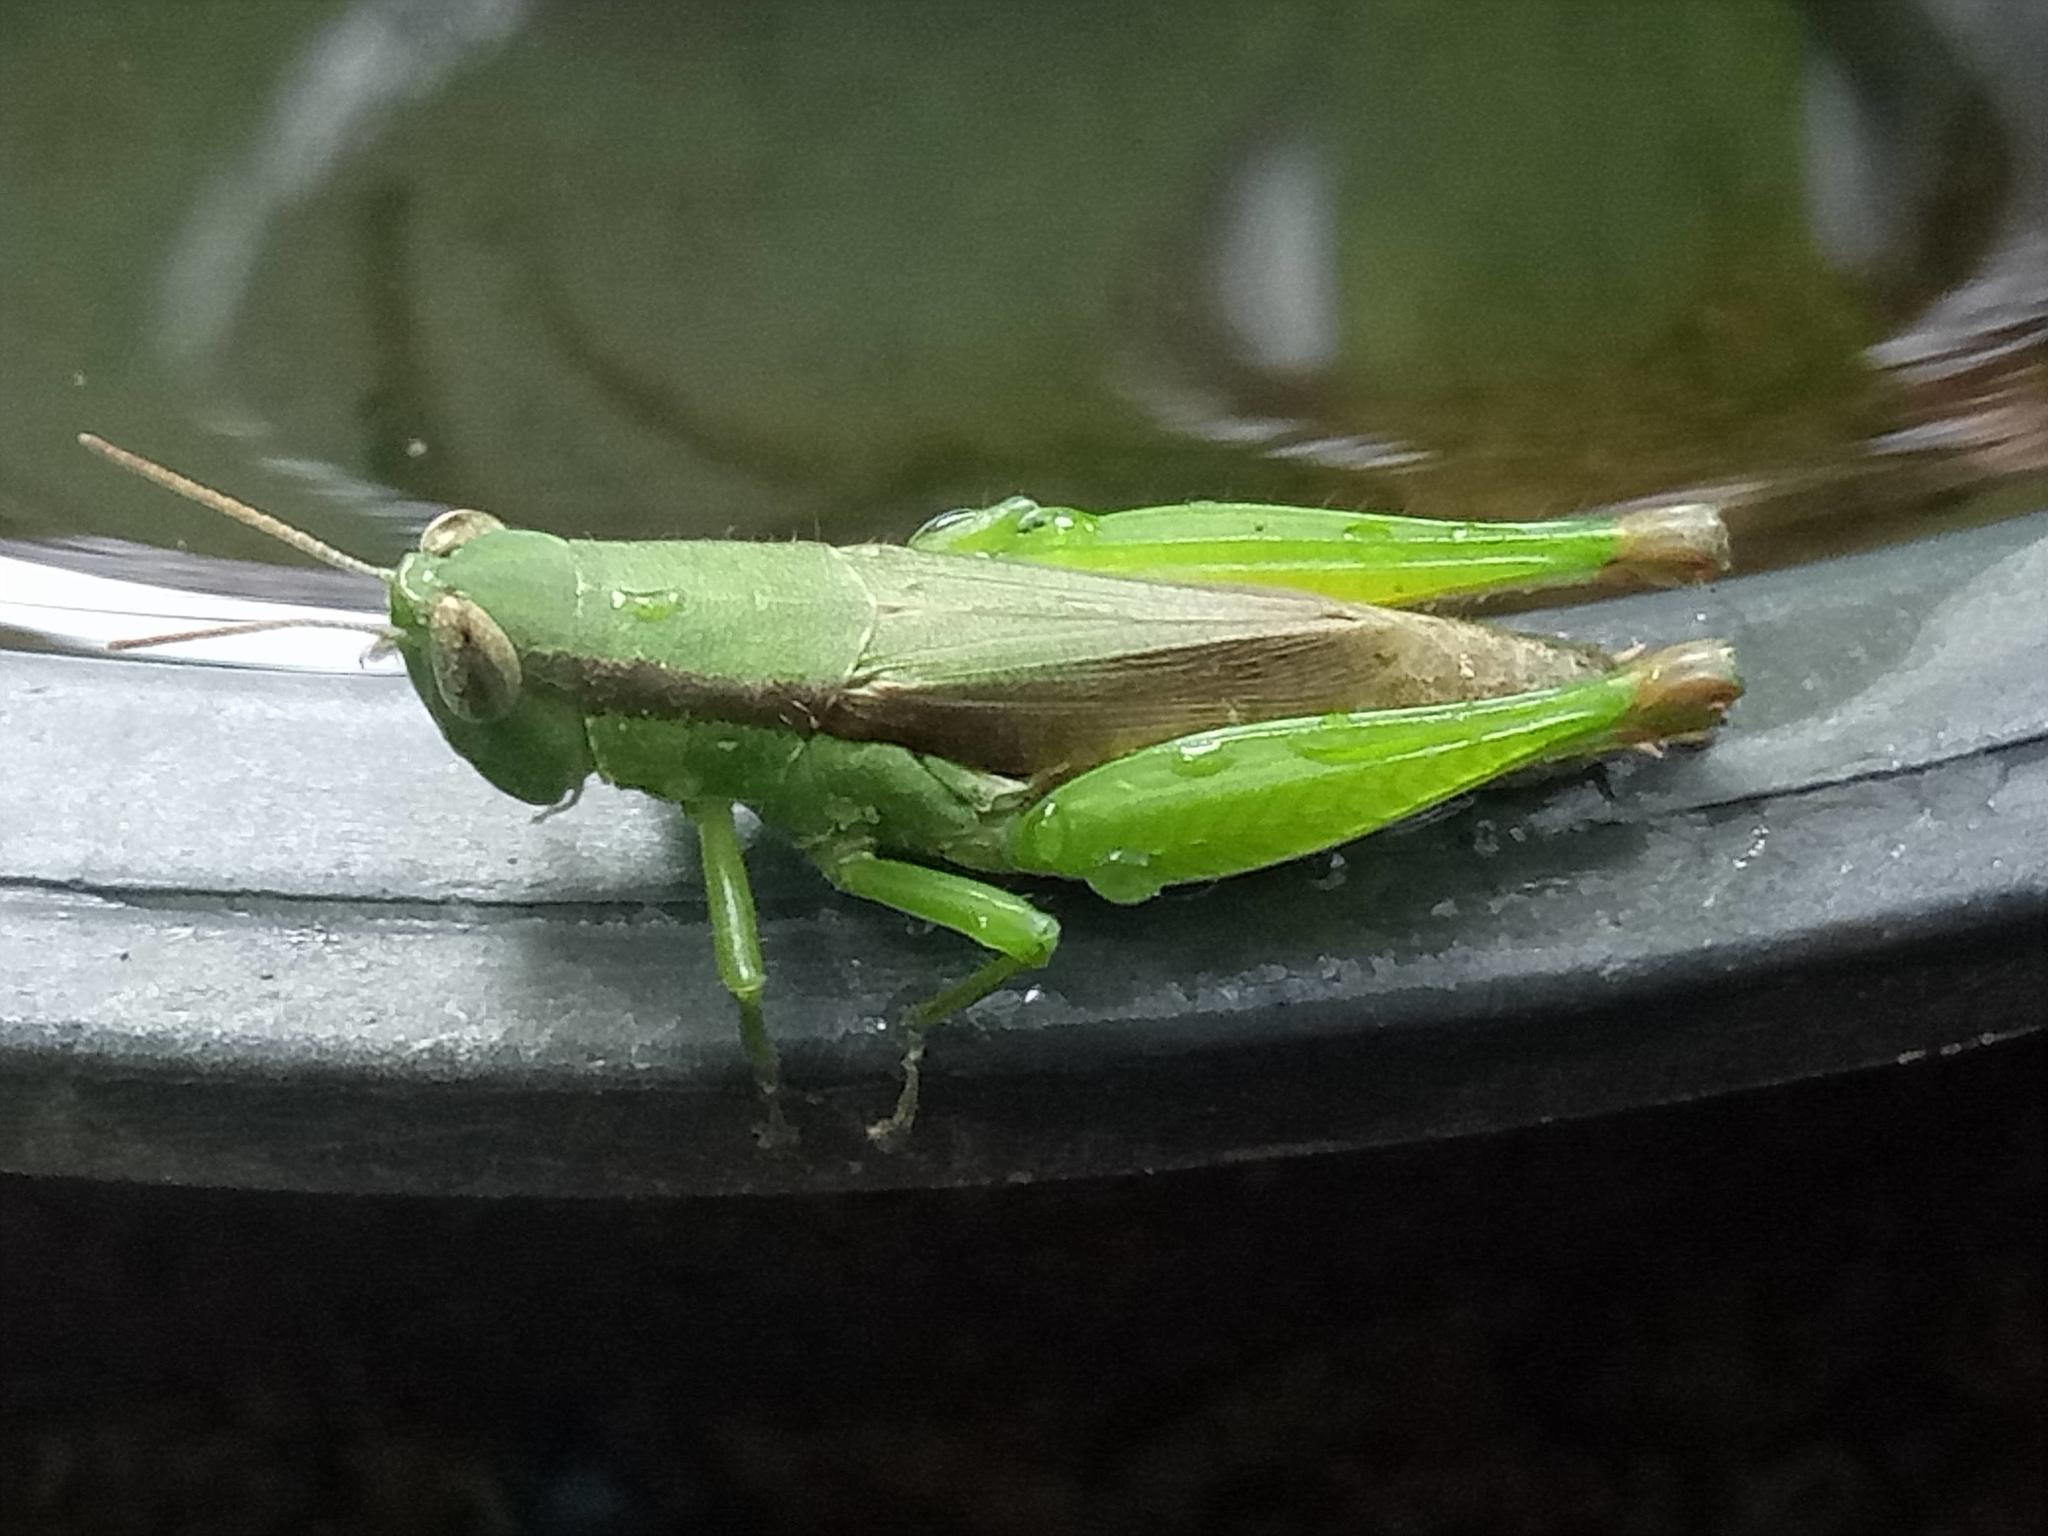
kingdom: Animalia
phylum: Arthropoda
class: Insecta
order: Orthoptera
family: Acrididae
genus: Pseudoxya
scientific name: Pseudoxya diminuta
